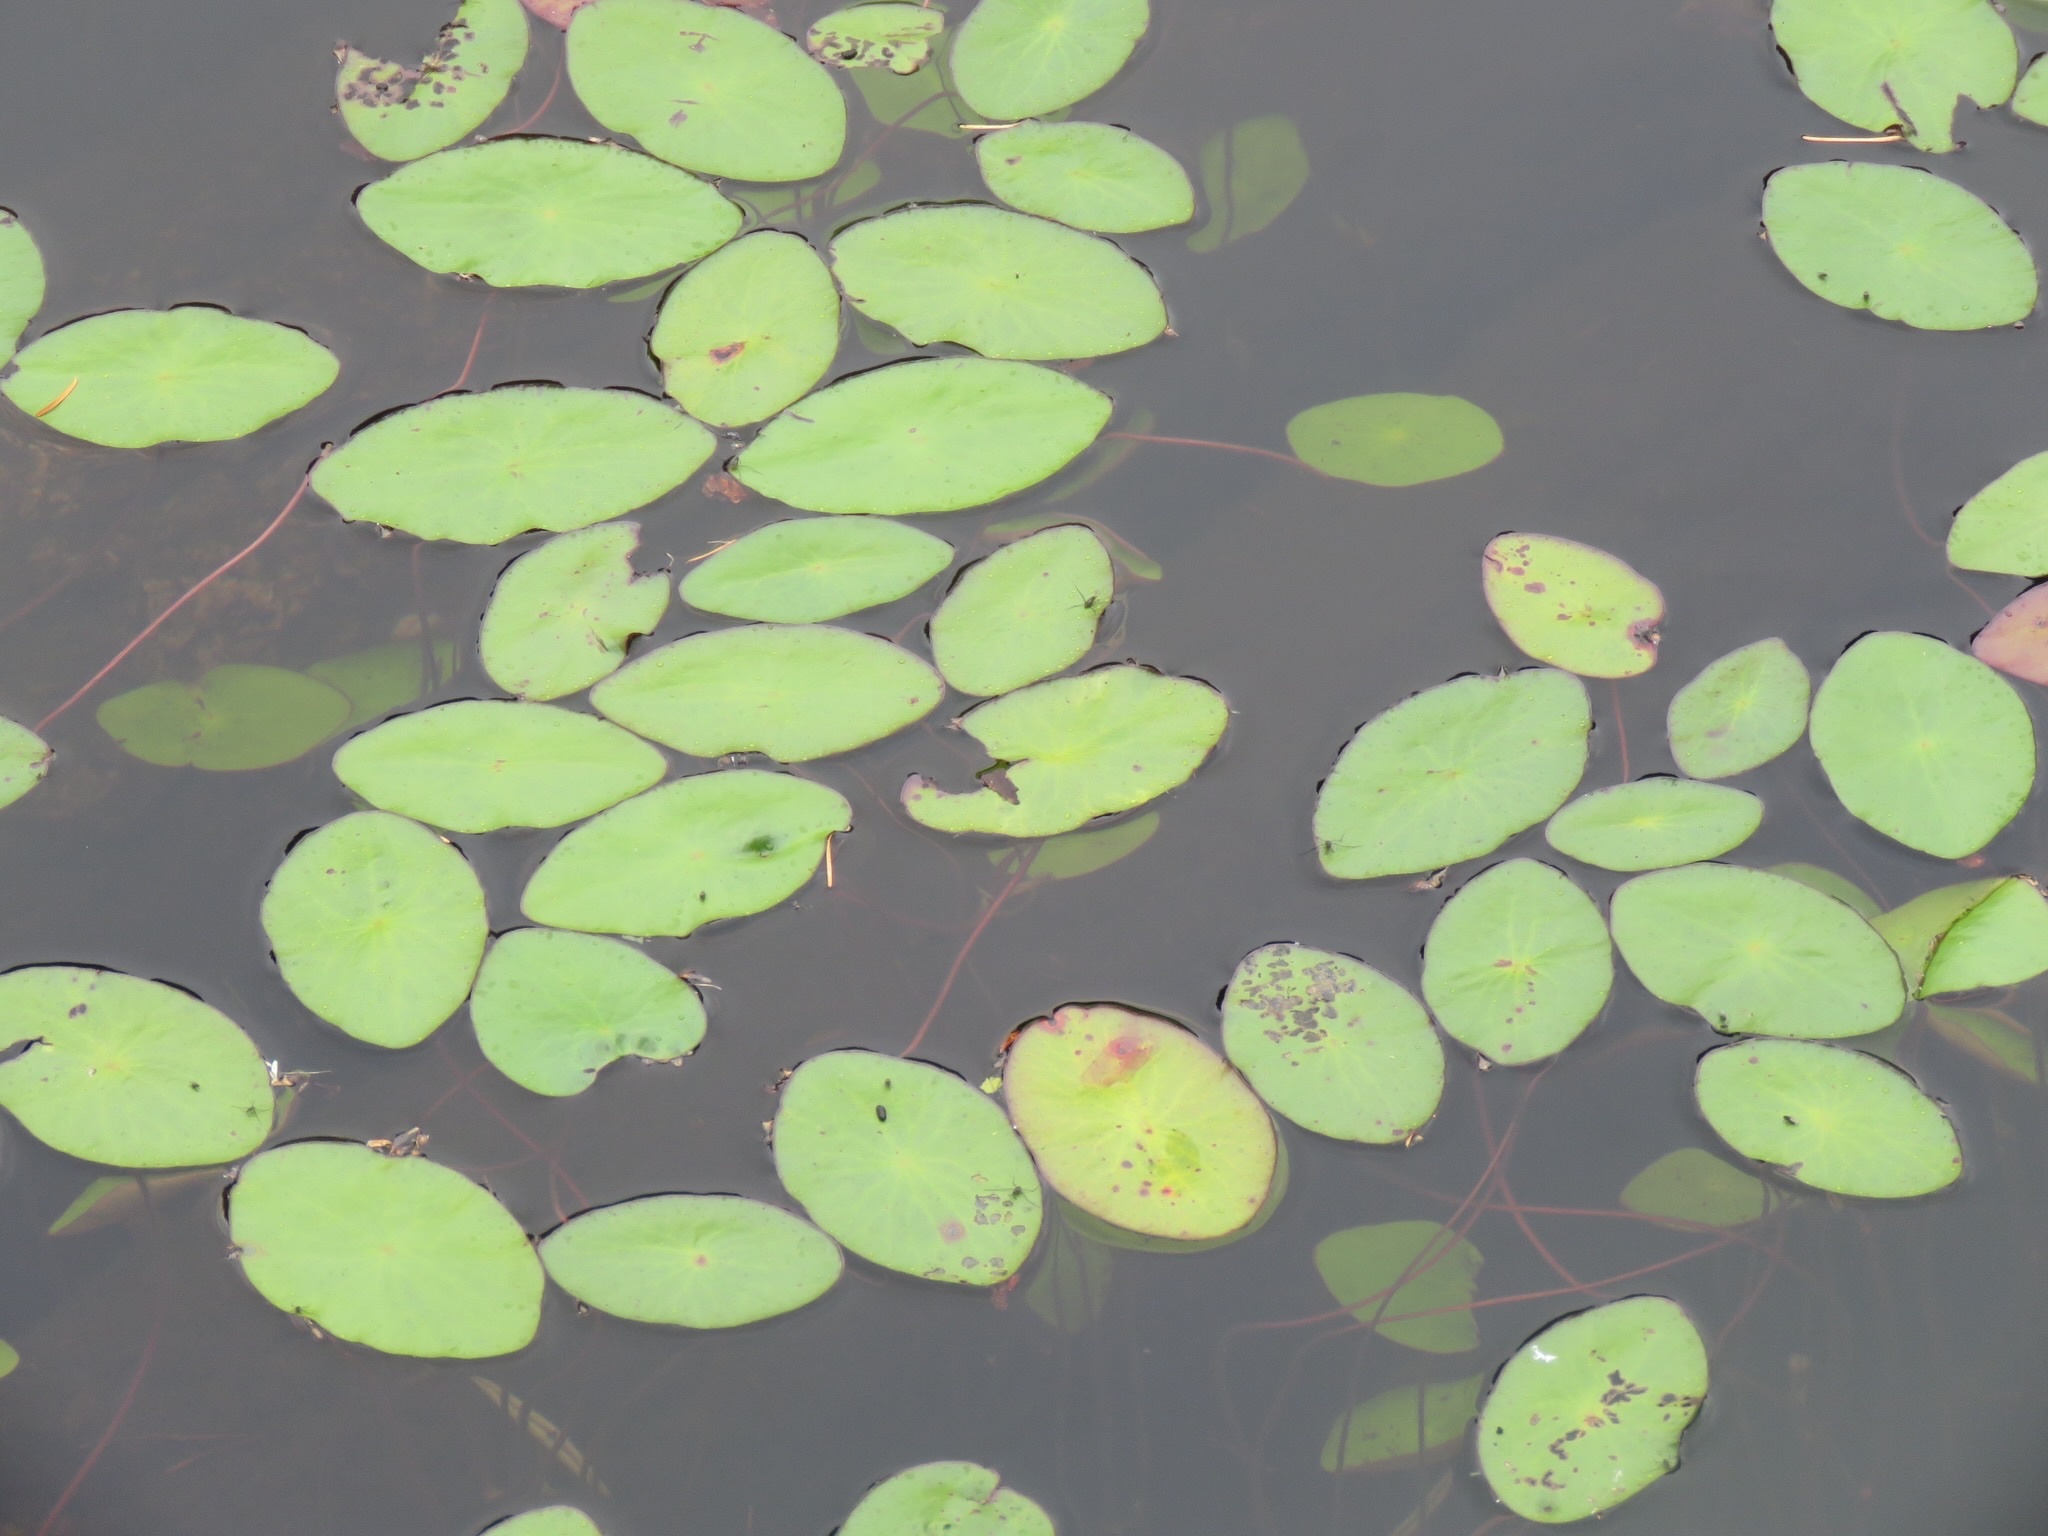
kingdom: Plantae
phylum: Tracheophyta
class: Magnoliopsida
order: Nymphaeales
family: Cabombaceae
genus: Brasenia
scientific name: Brasenia schreberi
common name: Water-shield
